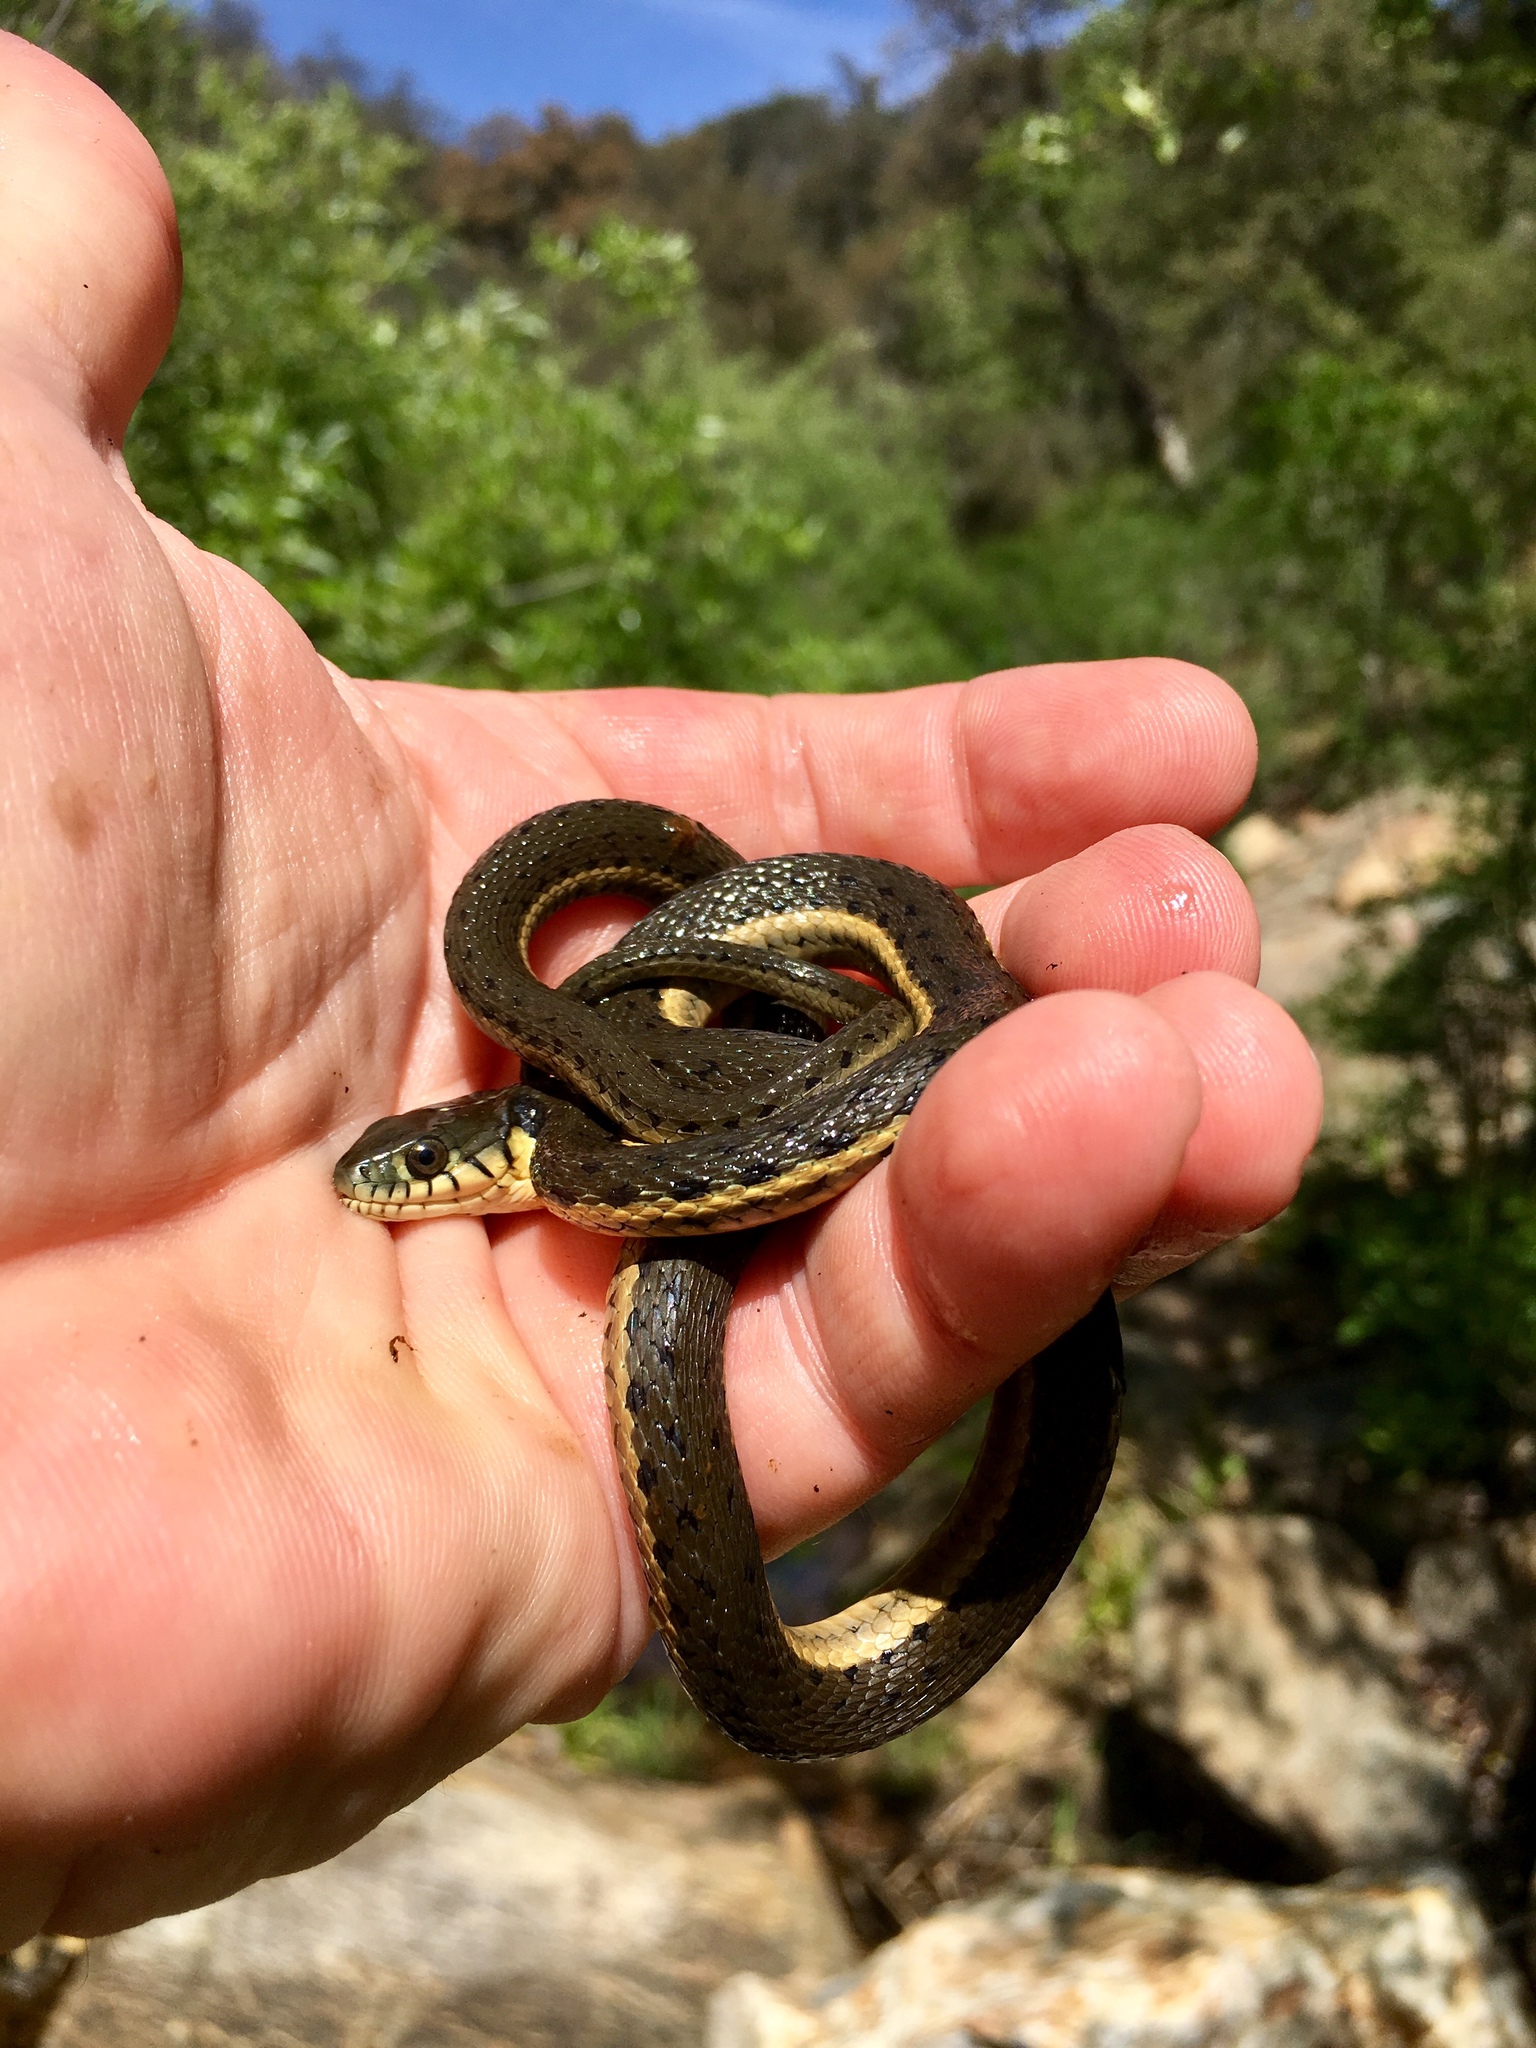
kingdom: Animalia
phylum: Chordata
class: Squamata
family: Colubridae
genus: Thamnophis
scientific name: Thamnophis hammondii
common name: Two-striped garter snake
